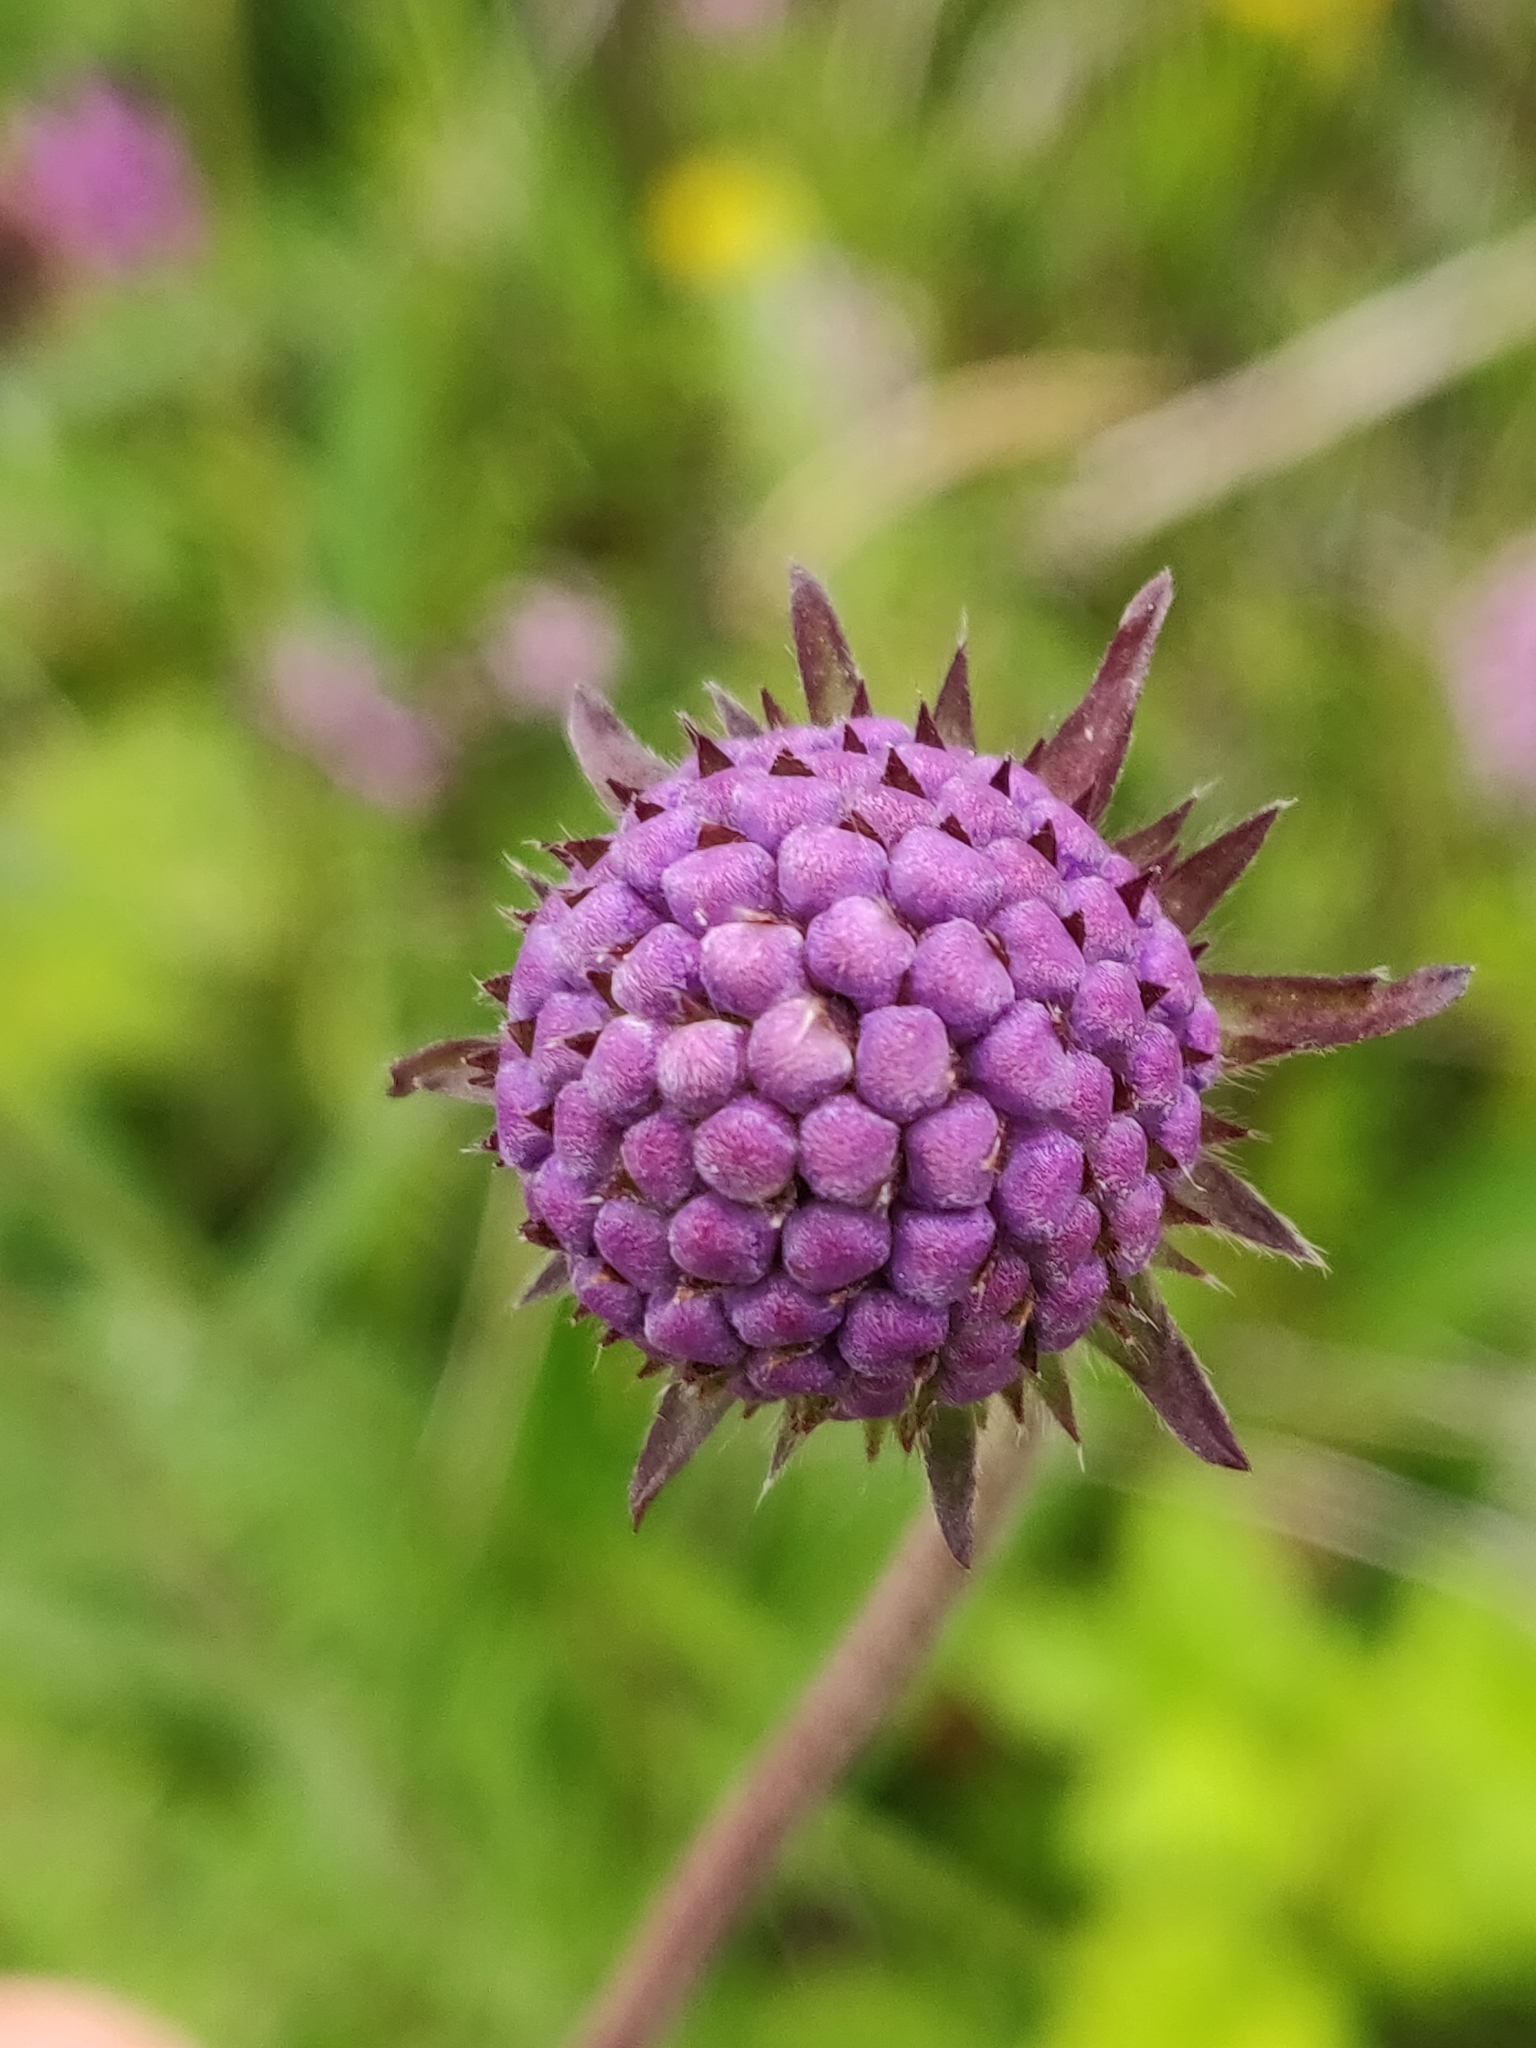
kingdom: Plantae
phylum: Tracheophyta
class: Magnoliopsida
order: Dipsacales
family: Caprifoliaceae
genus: Succisa
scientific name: Succisa pratensis
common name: Devil's-bit
